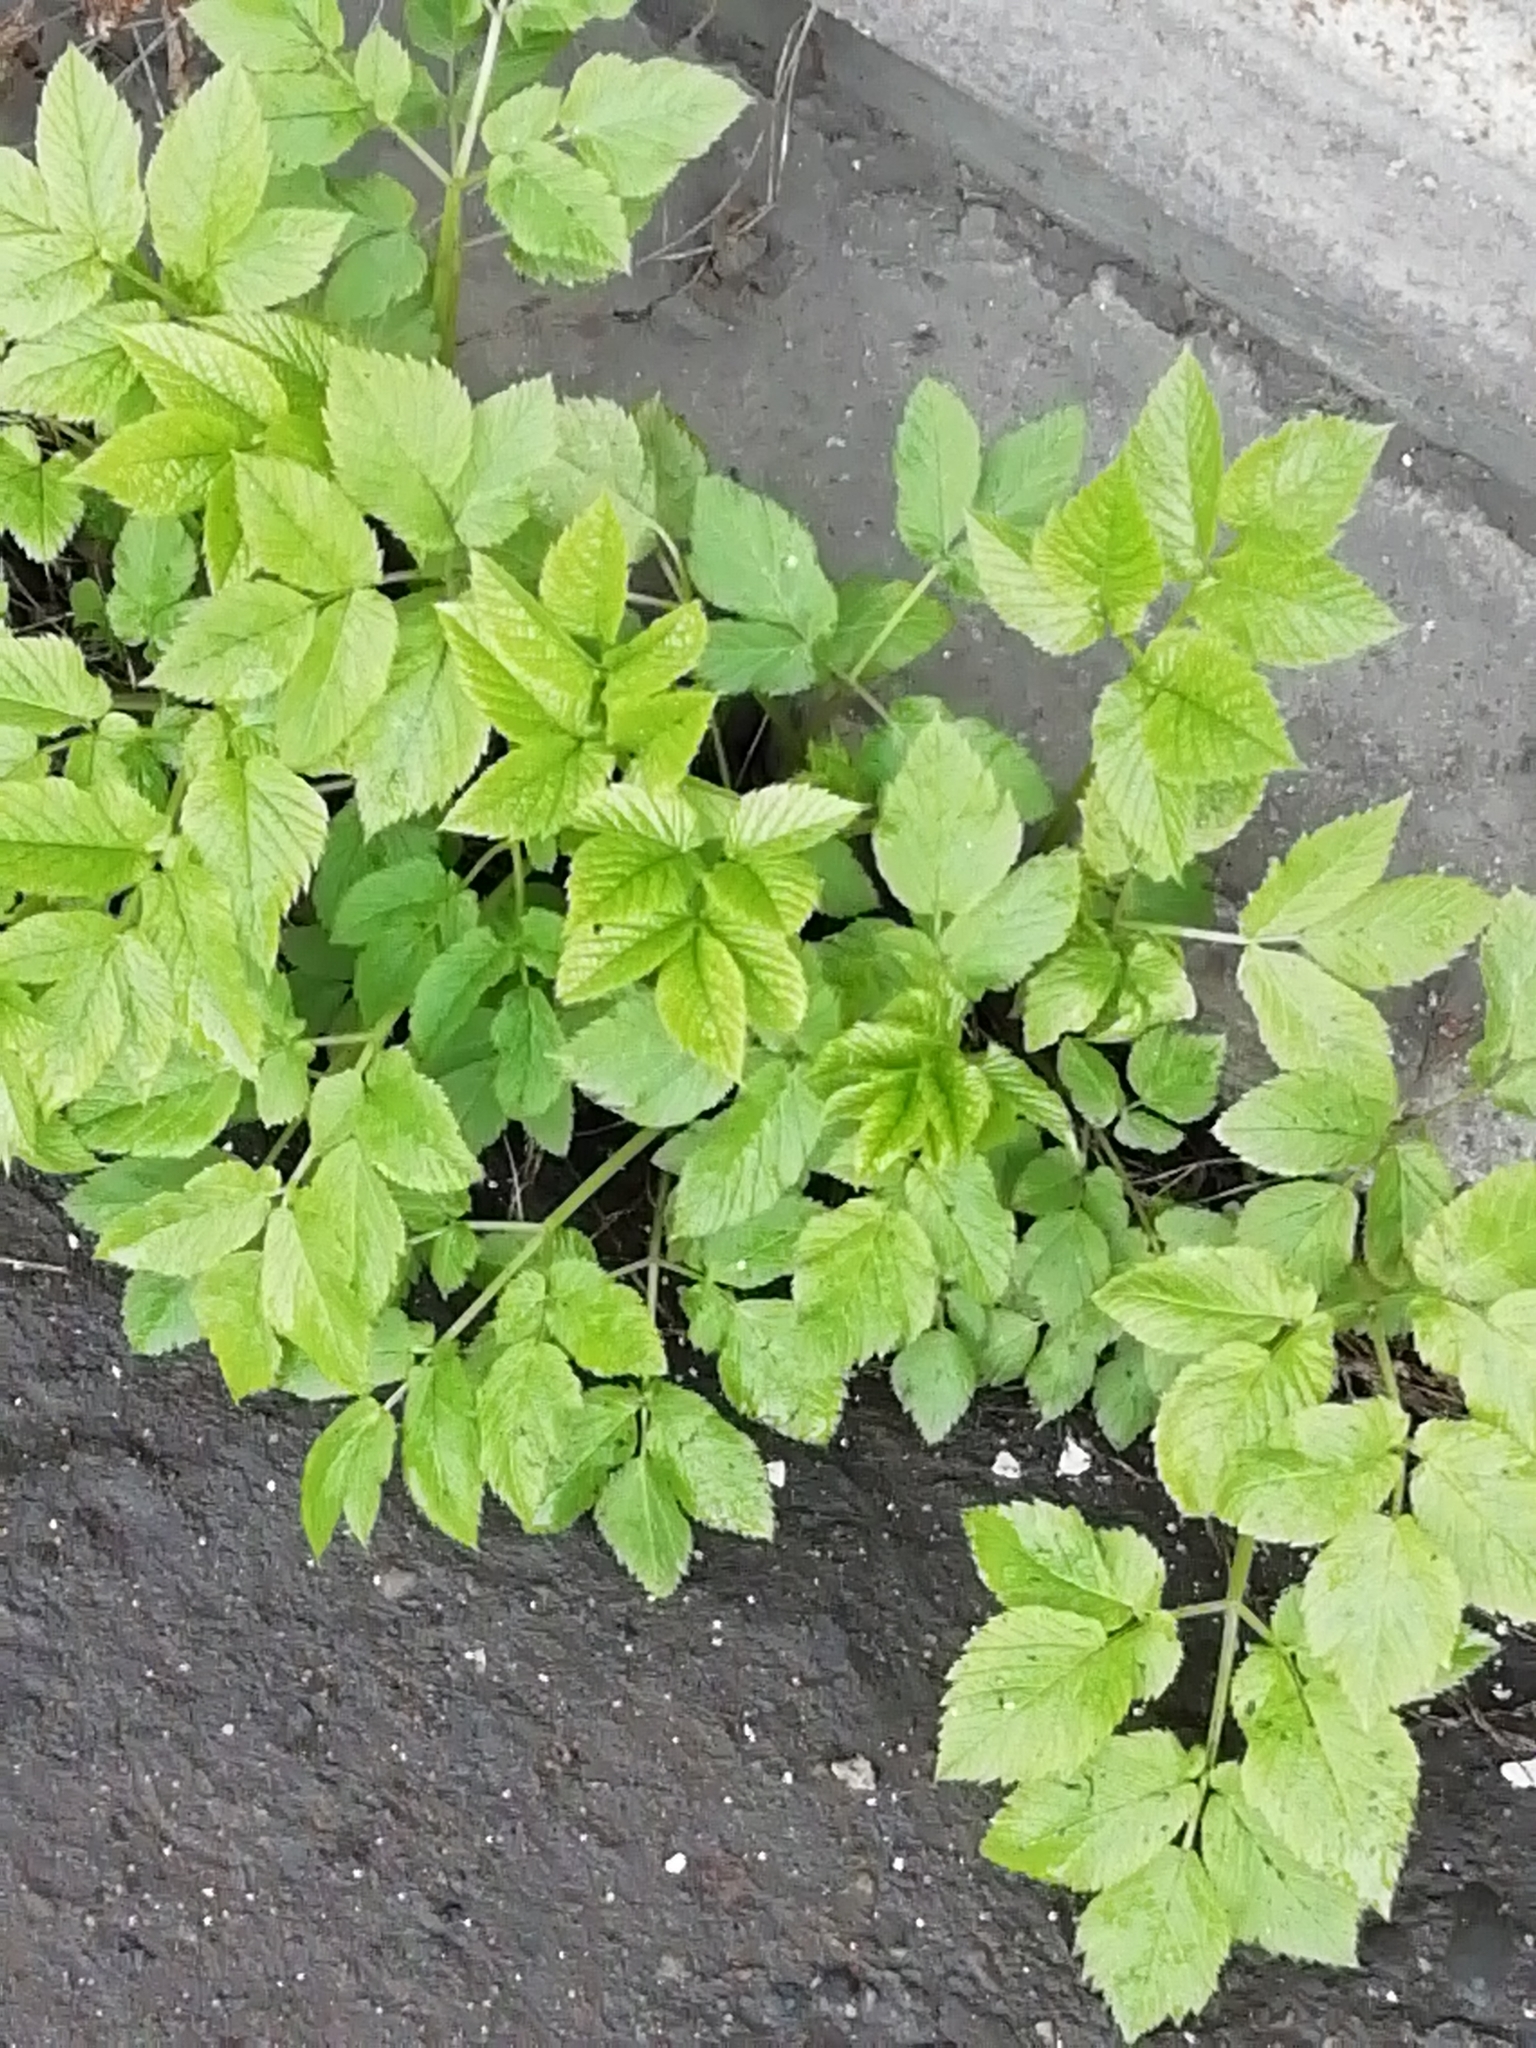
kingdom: Plantae
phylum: Tracheophyta
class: Magnoliopsida
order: Apiales
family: Apiaceae
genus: Aegopodium
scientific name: Aegopodium podagraria
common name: Ground-elder
